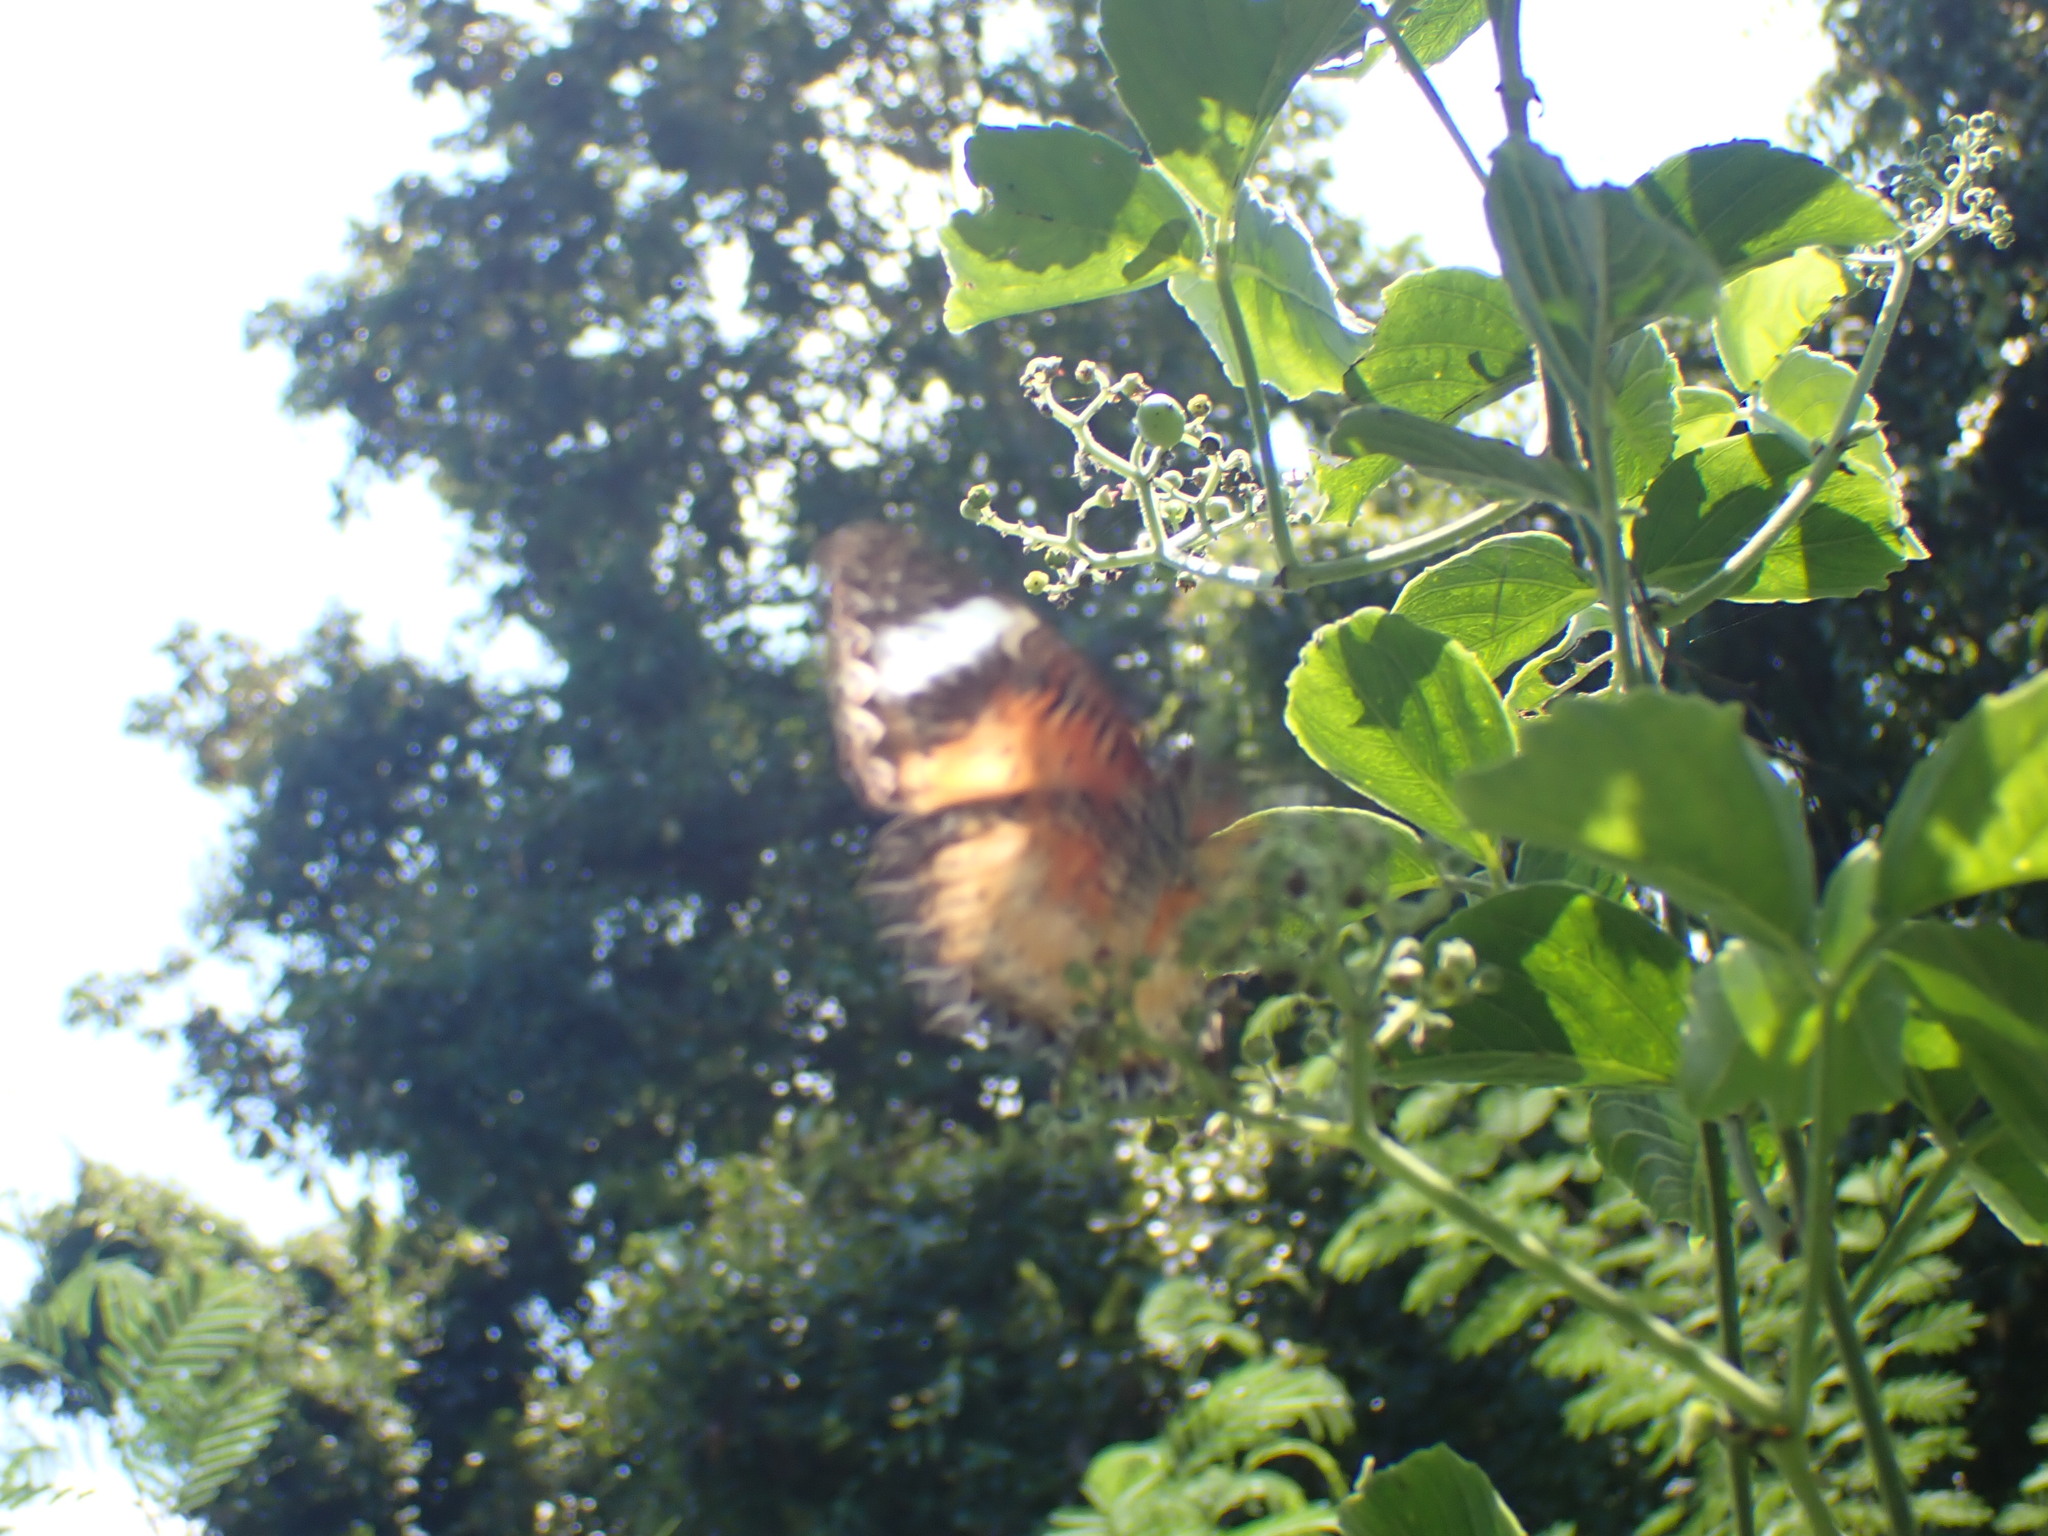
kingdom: Animalia
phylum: Arthropoda
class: Insecta
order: Lepidoptera
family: Nymphalidae
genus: Cethosia
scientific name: Cethosia cyane
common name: Leopard lacewing butterfly
